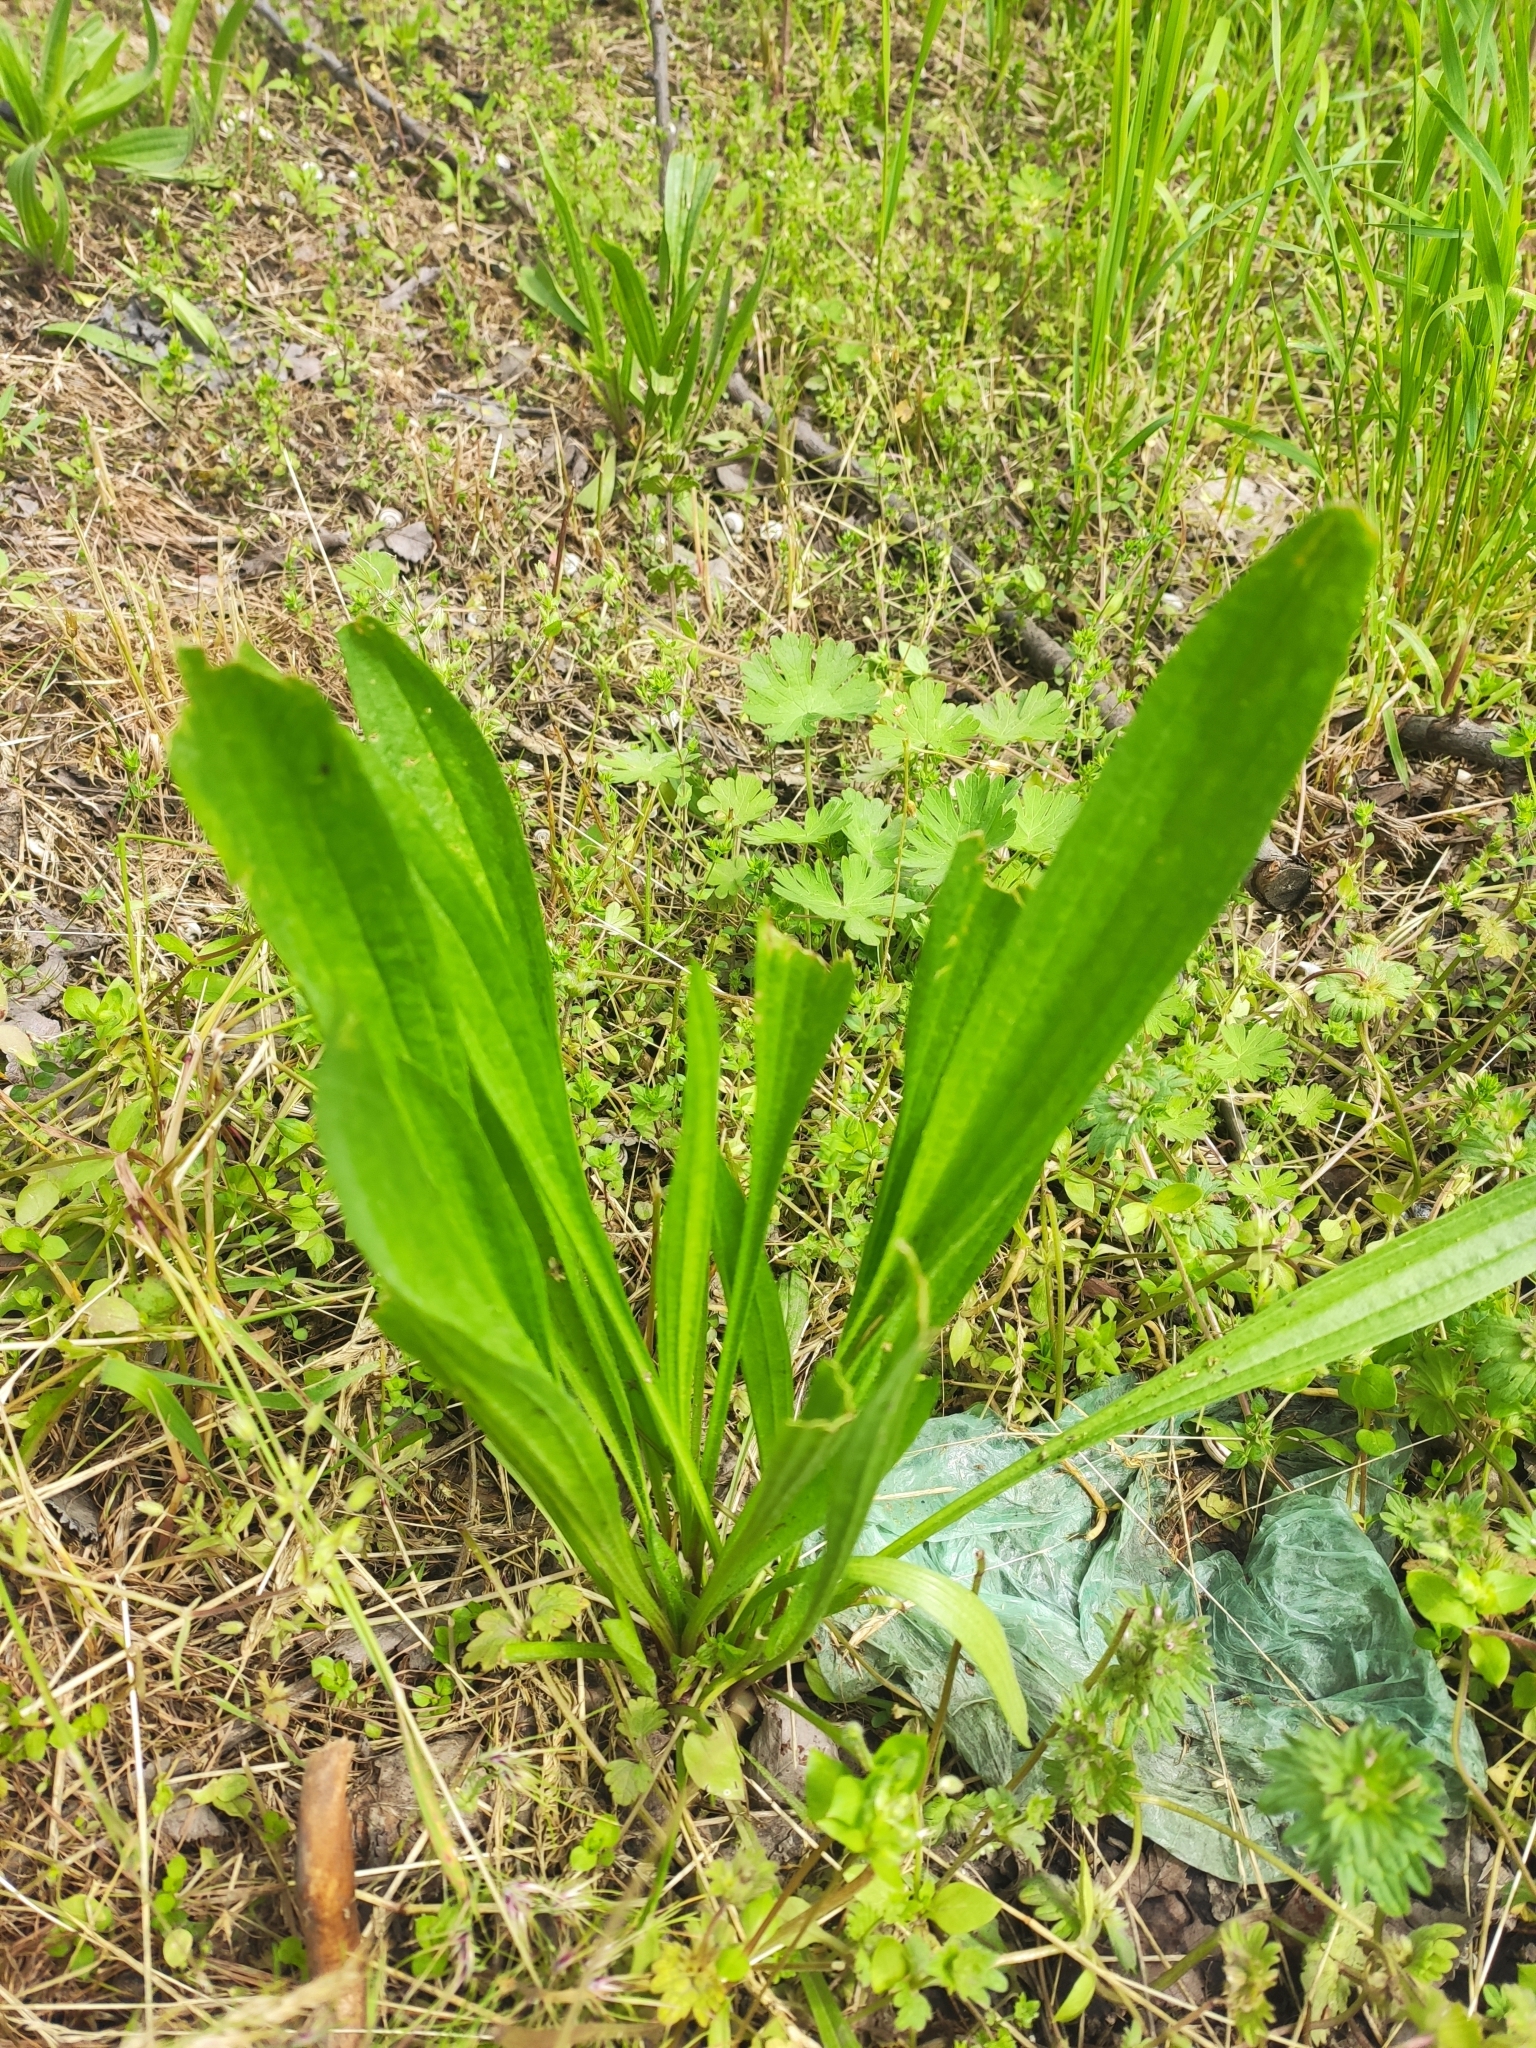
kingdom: Plantae
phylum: Tracheophyta
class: Magnoliopsida
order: Lamiales
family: Plantaginaceae
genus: Plantago
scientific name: Plantago lanceolata
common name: Ribwort plantain
